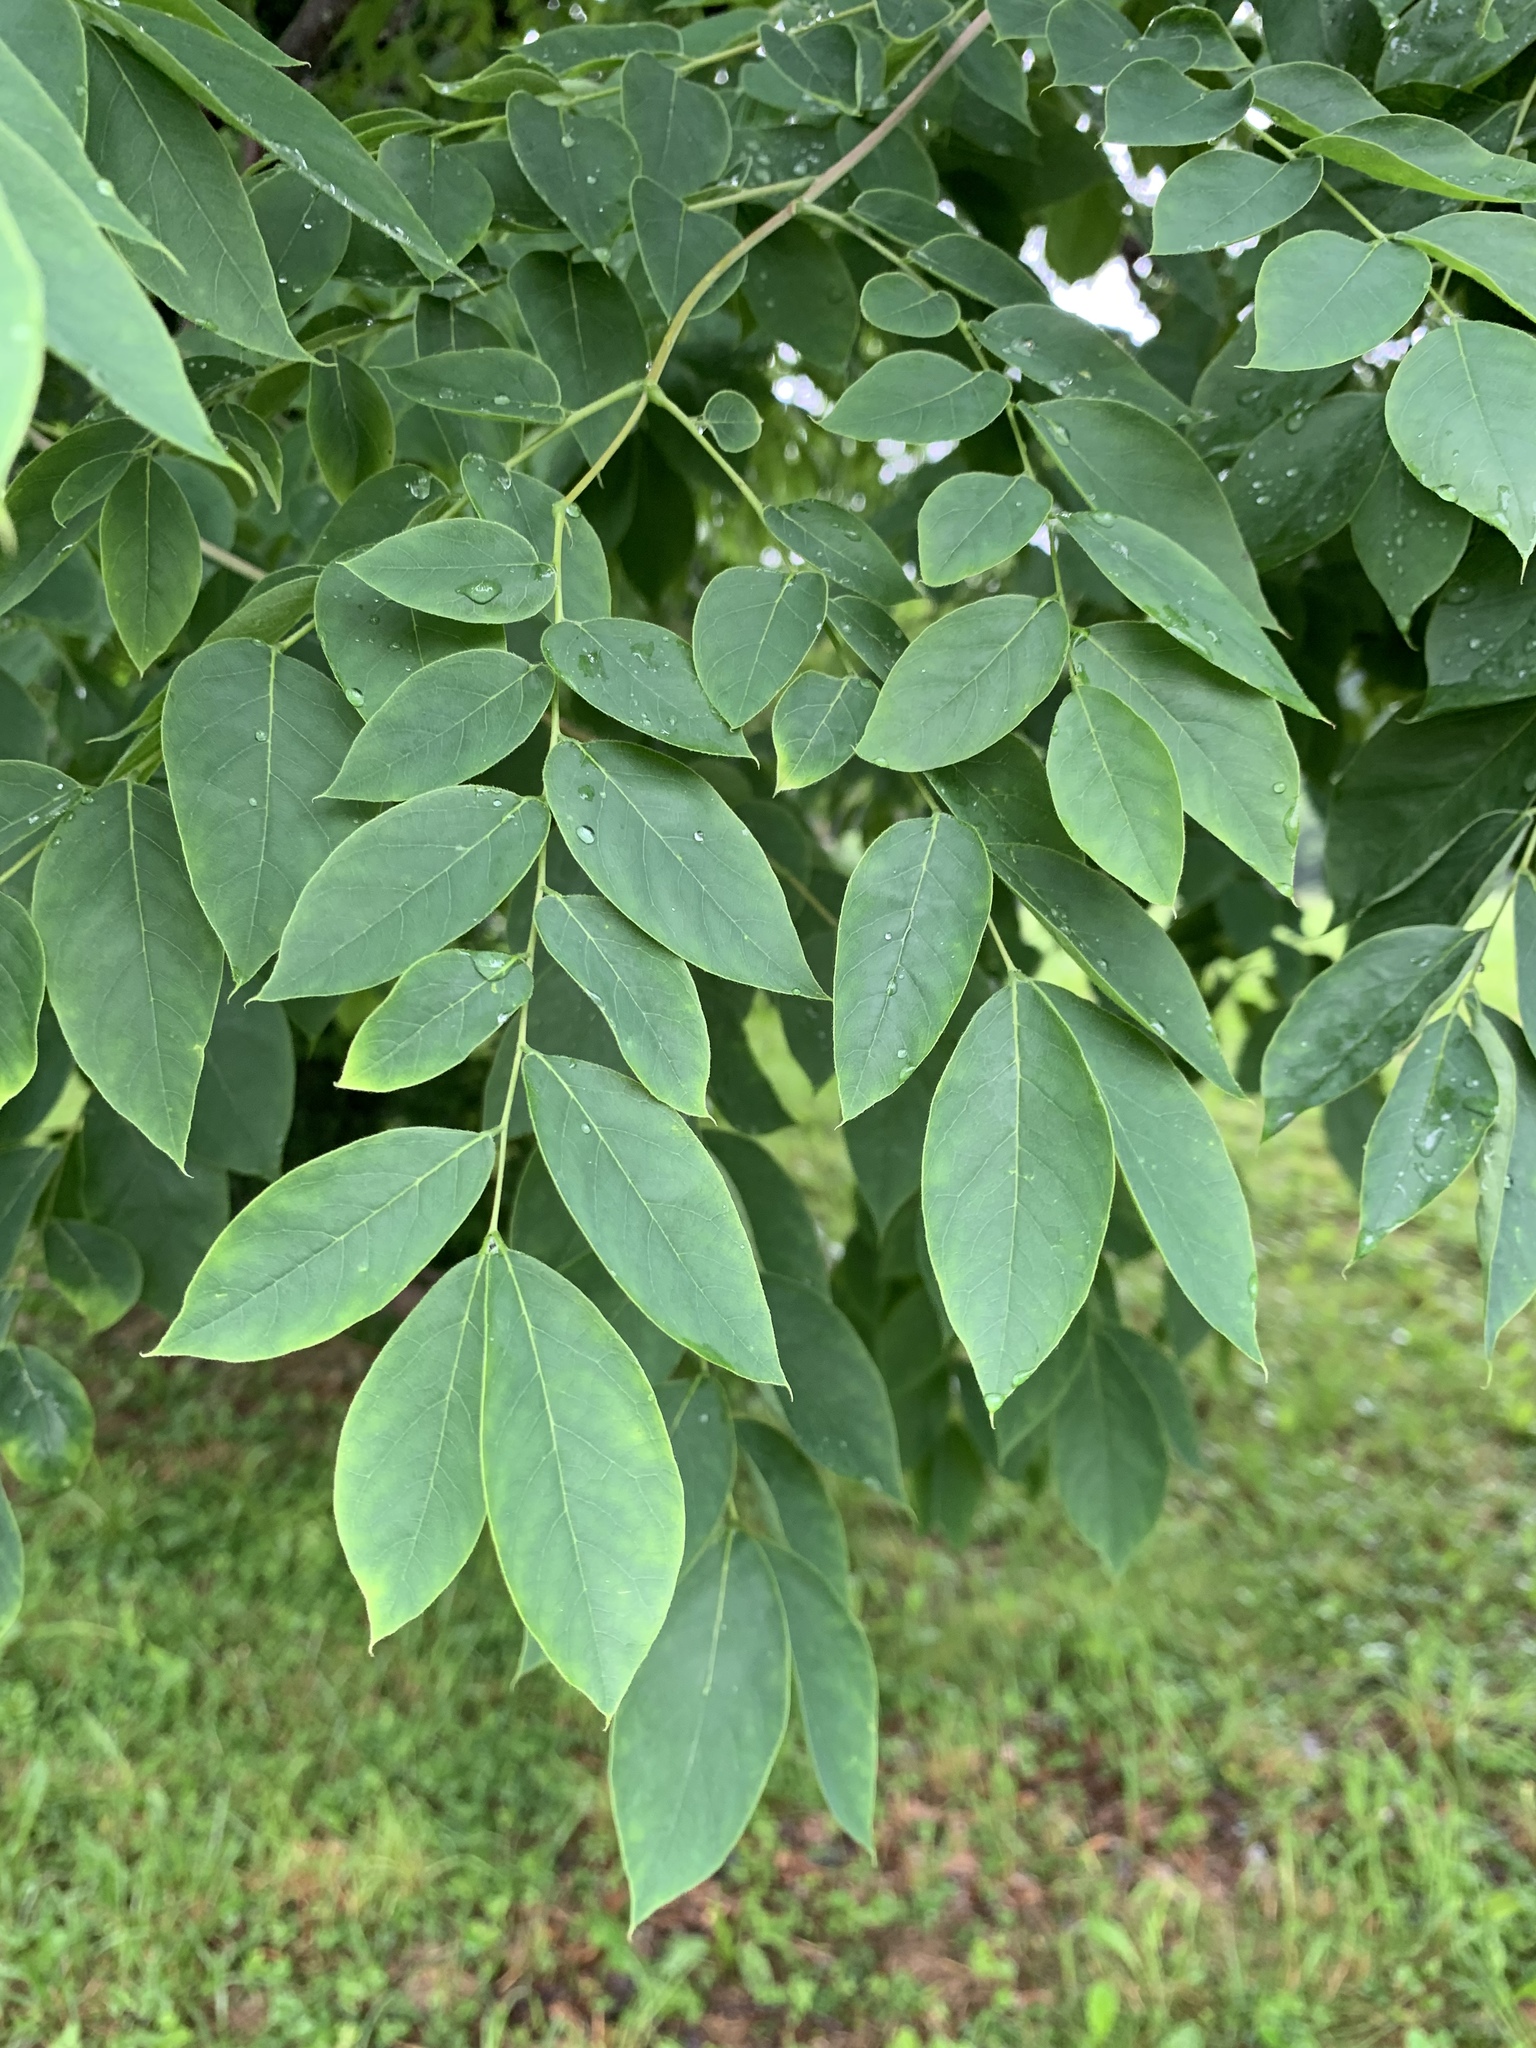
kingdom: Plantae
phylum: Tracheophyta
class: Magnoliopsida
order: Fabales
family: Fabaceae
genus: Gymnocladus
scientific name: Gymnocladus dioicus
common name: Kentucky coffee-tree
